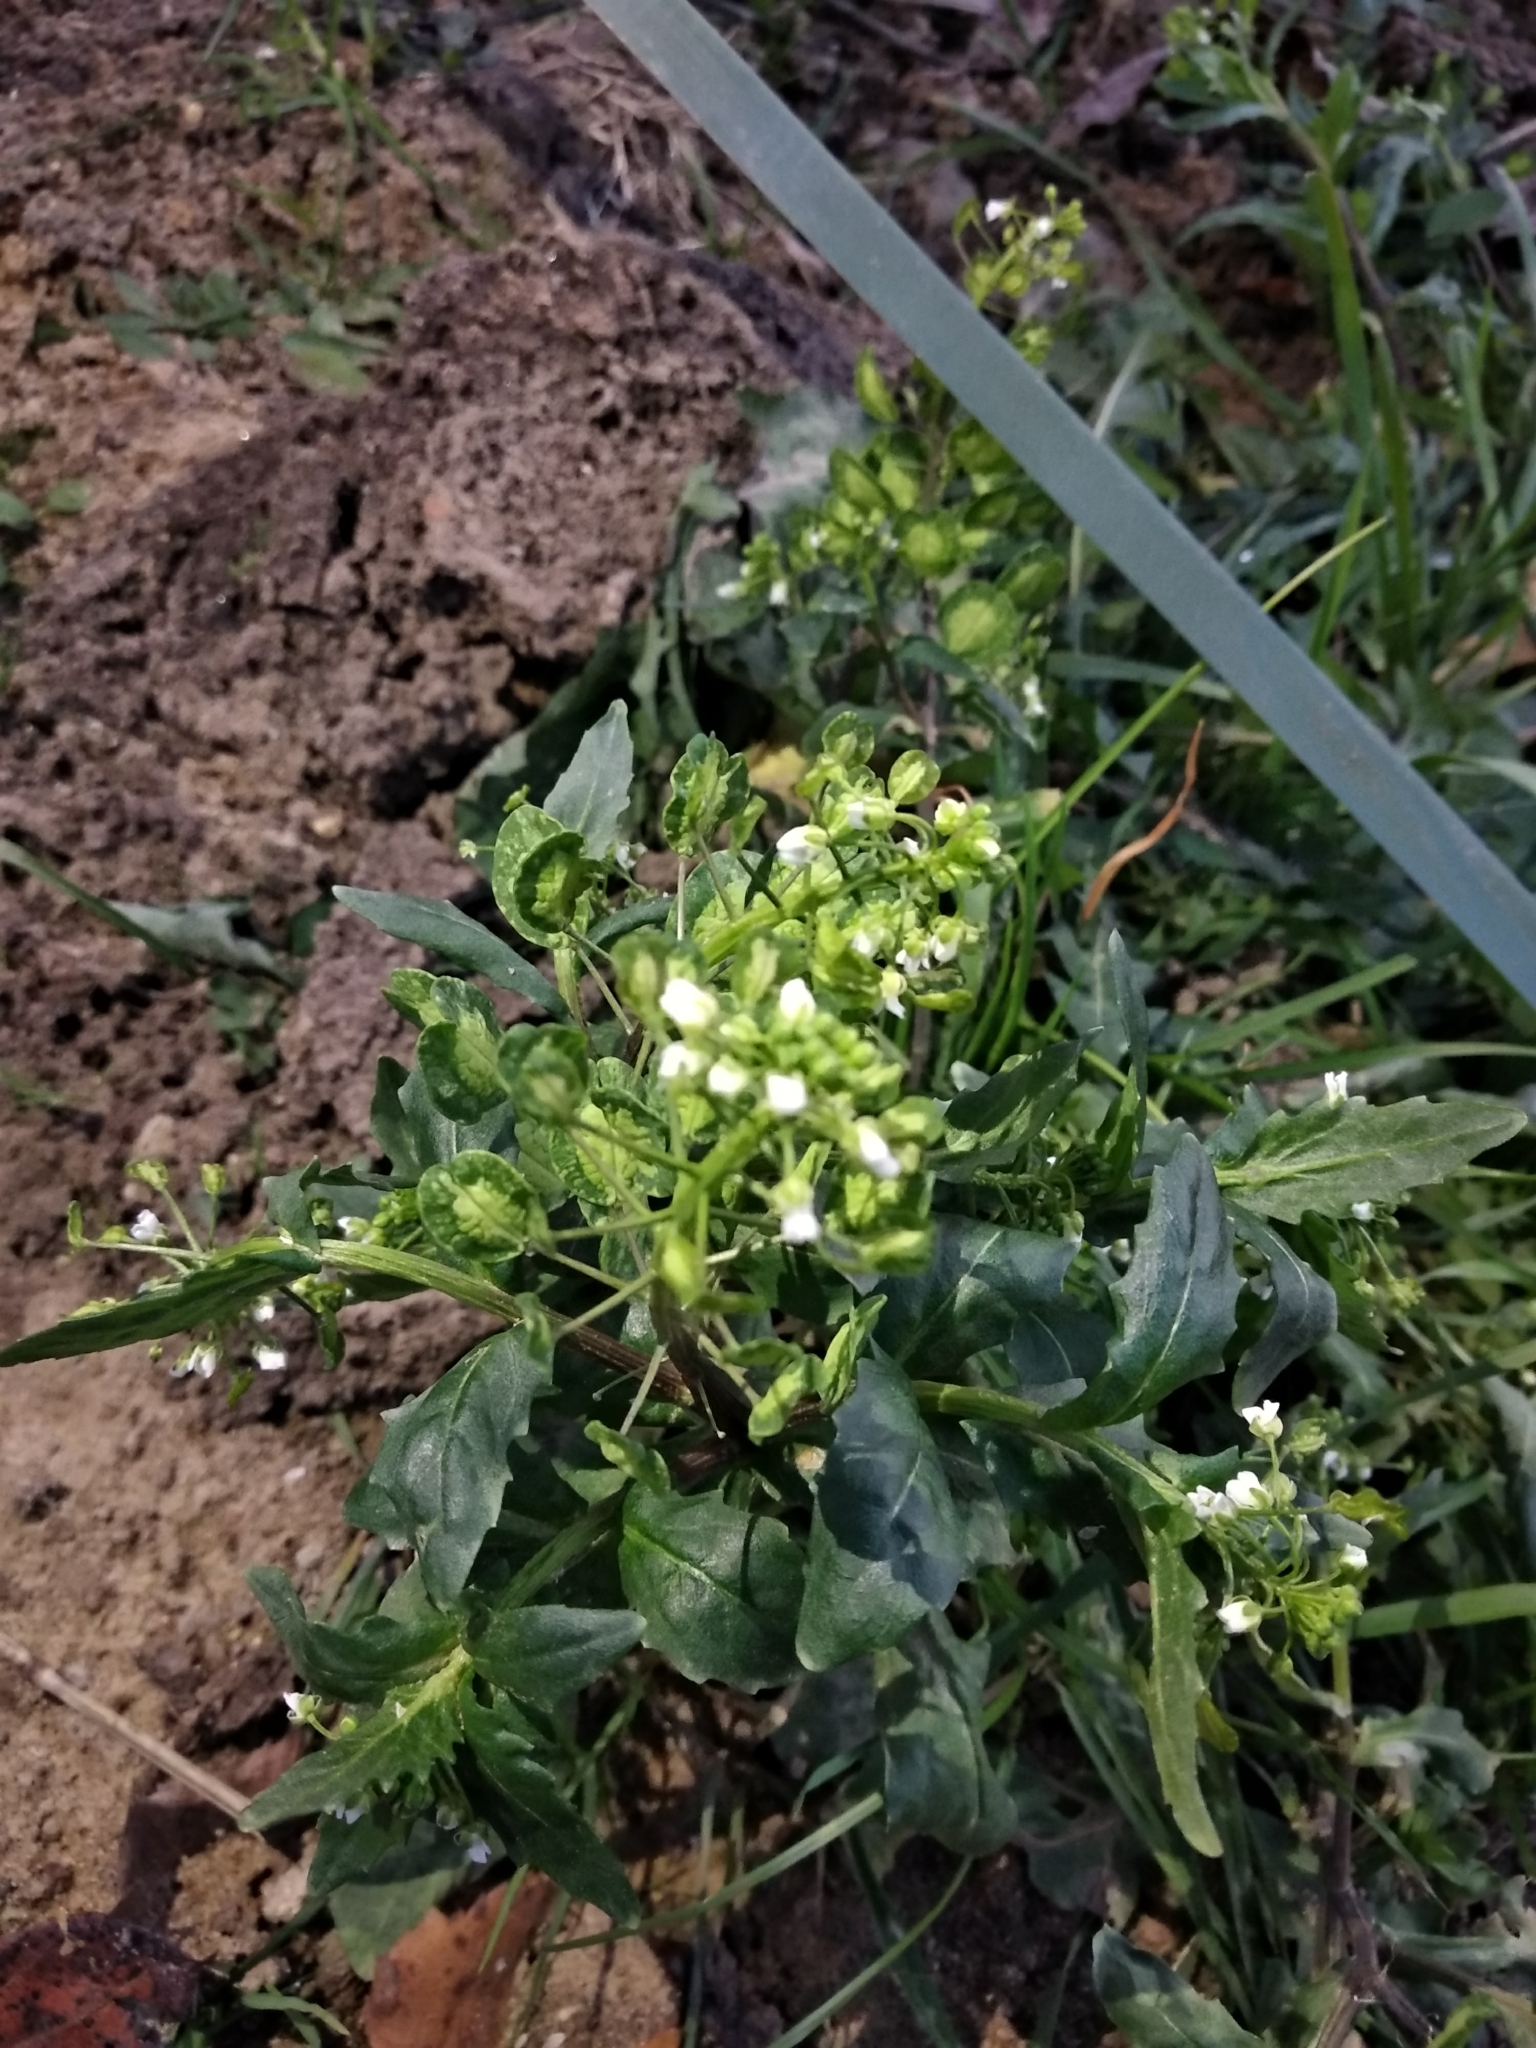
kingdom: Plantae
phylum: Tracheophyta
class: Magnoliopsida
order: Brassicales
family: Brassicaceae
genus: Thlaspi
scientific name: Thlaspi arvense
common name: Field pennycress
